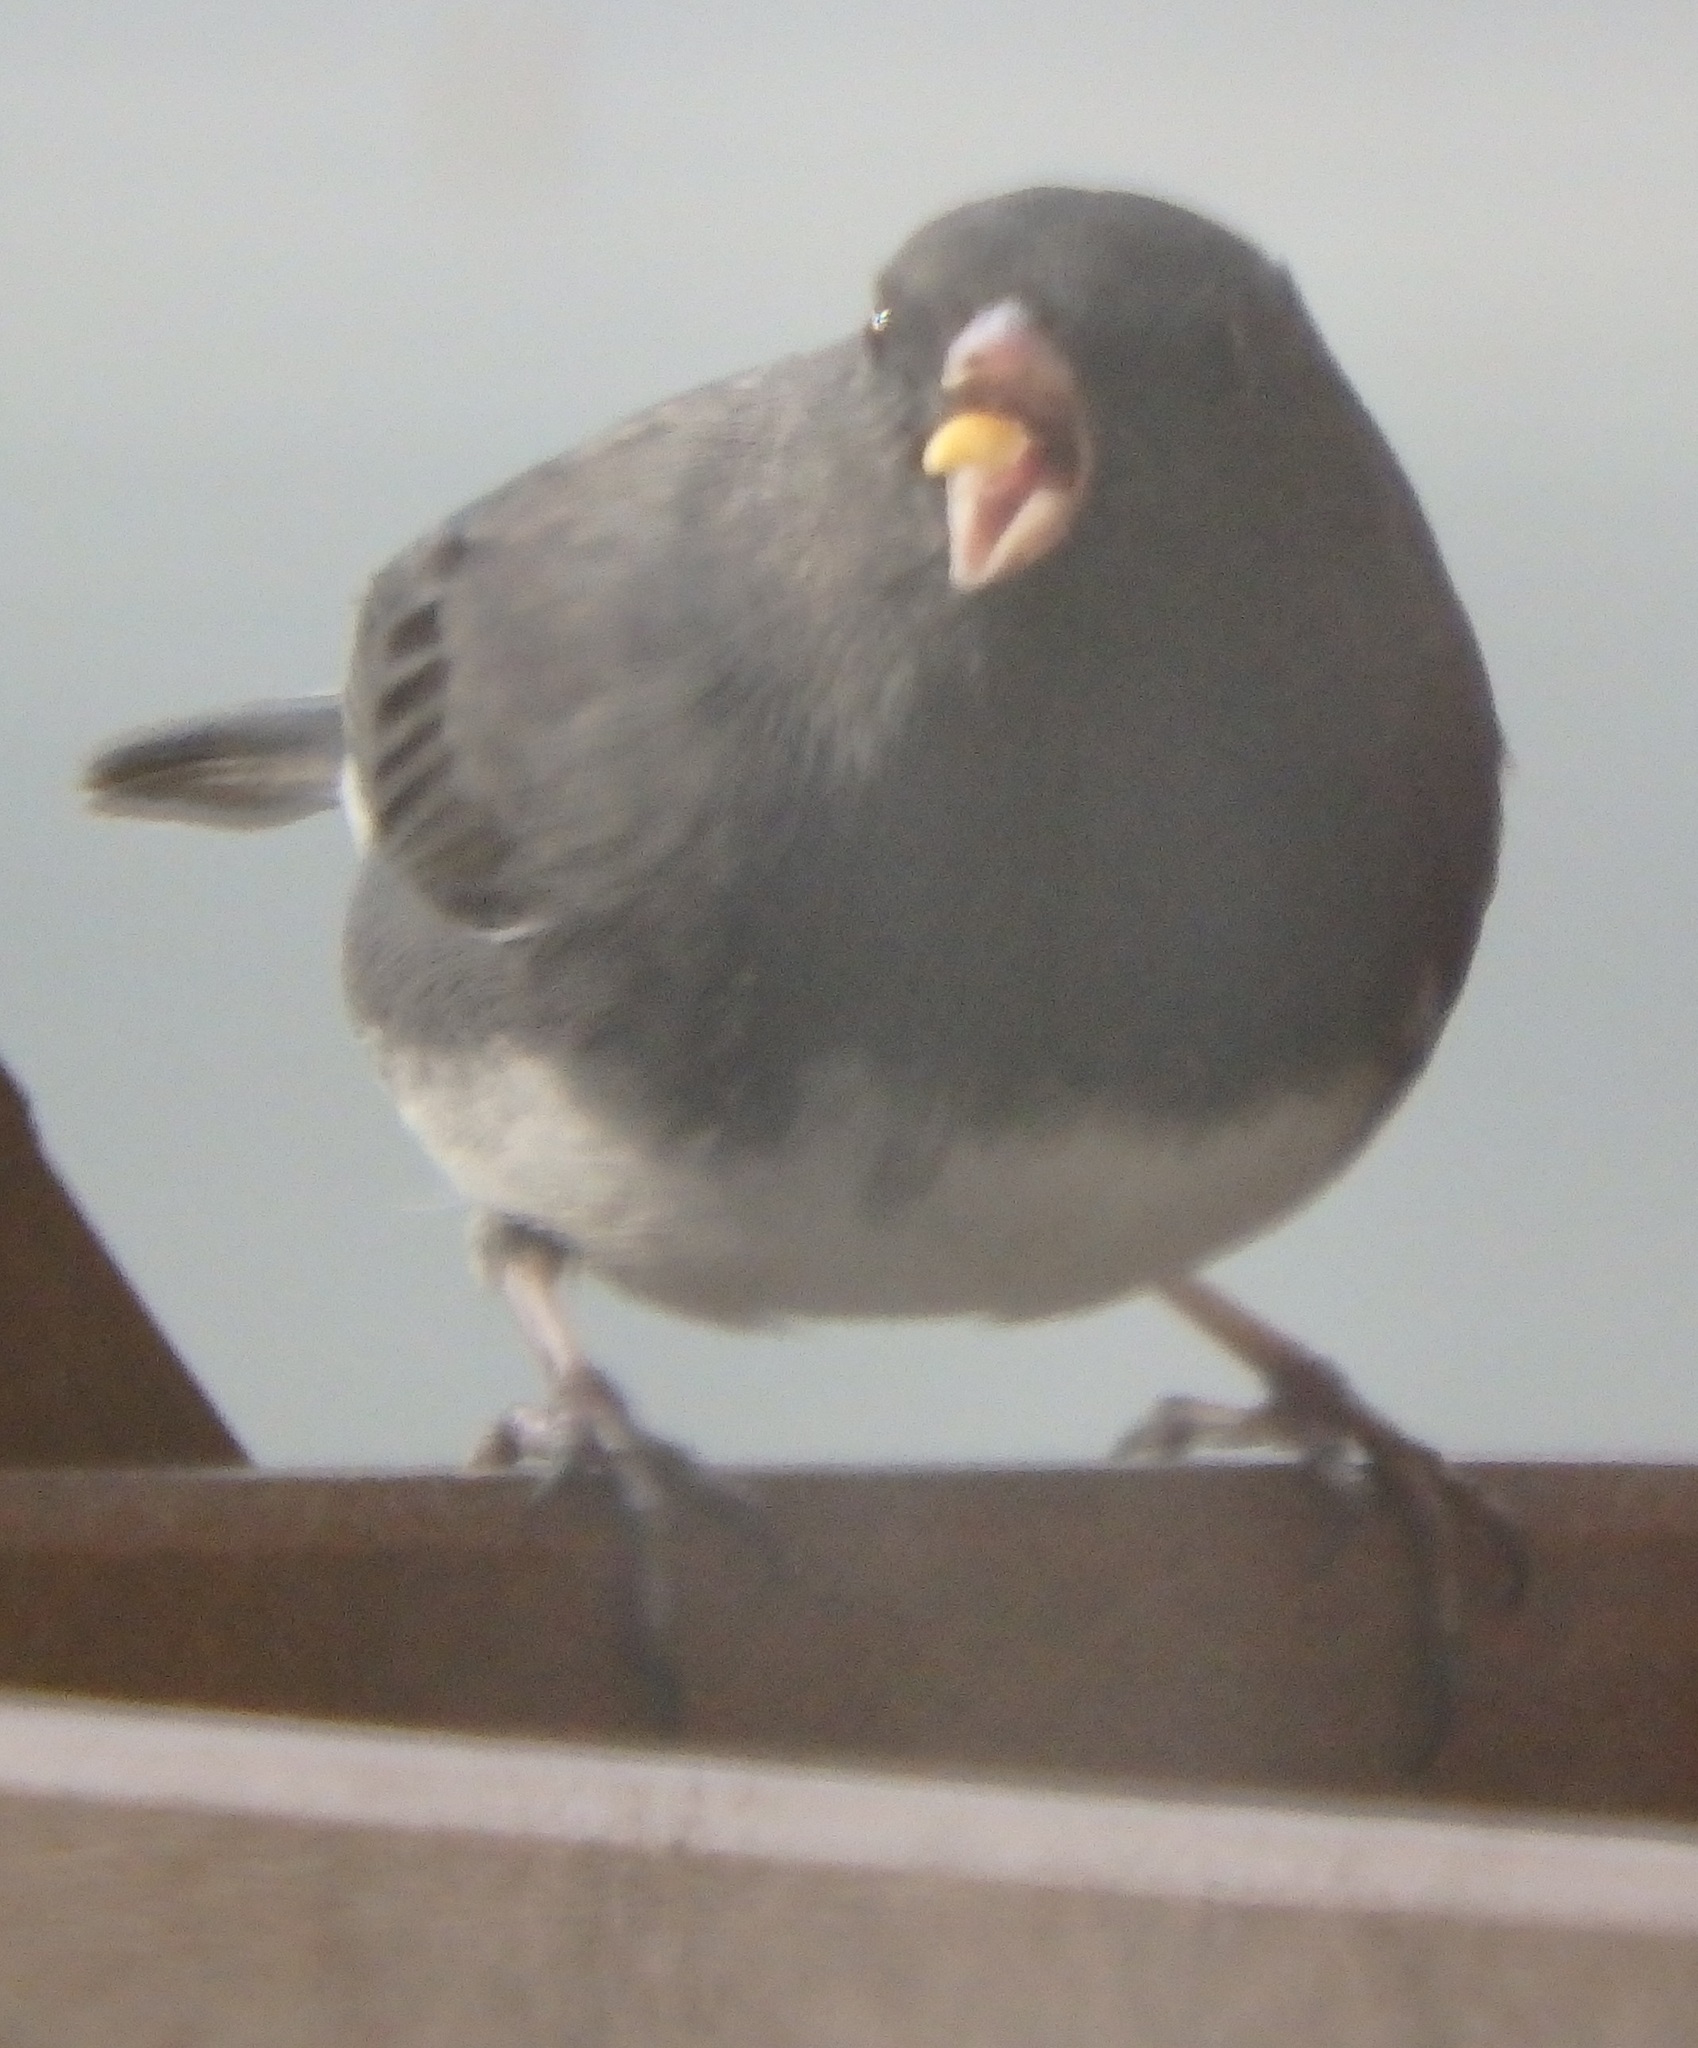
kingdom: Animalia
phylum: Chordata
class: Aves
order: Passeriformes
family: Passerellidae
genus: Junco
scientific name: Junco hyemalis
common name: Dark-eyed junco
